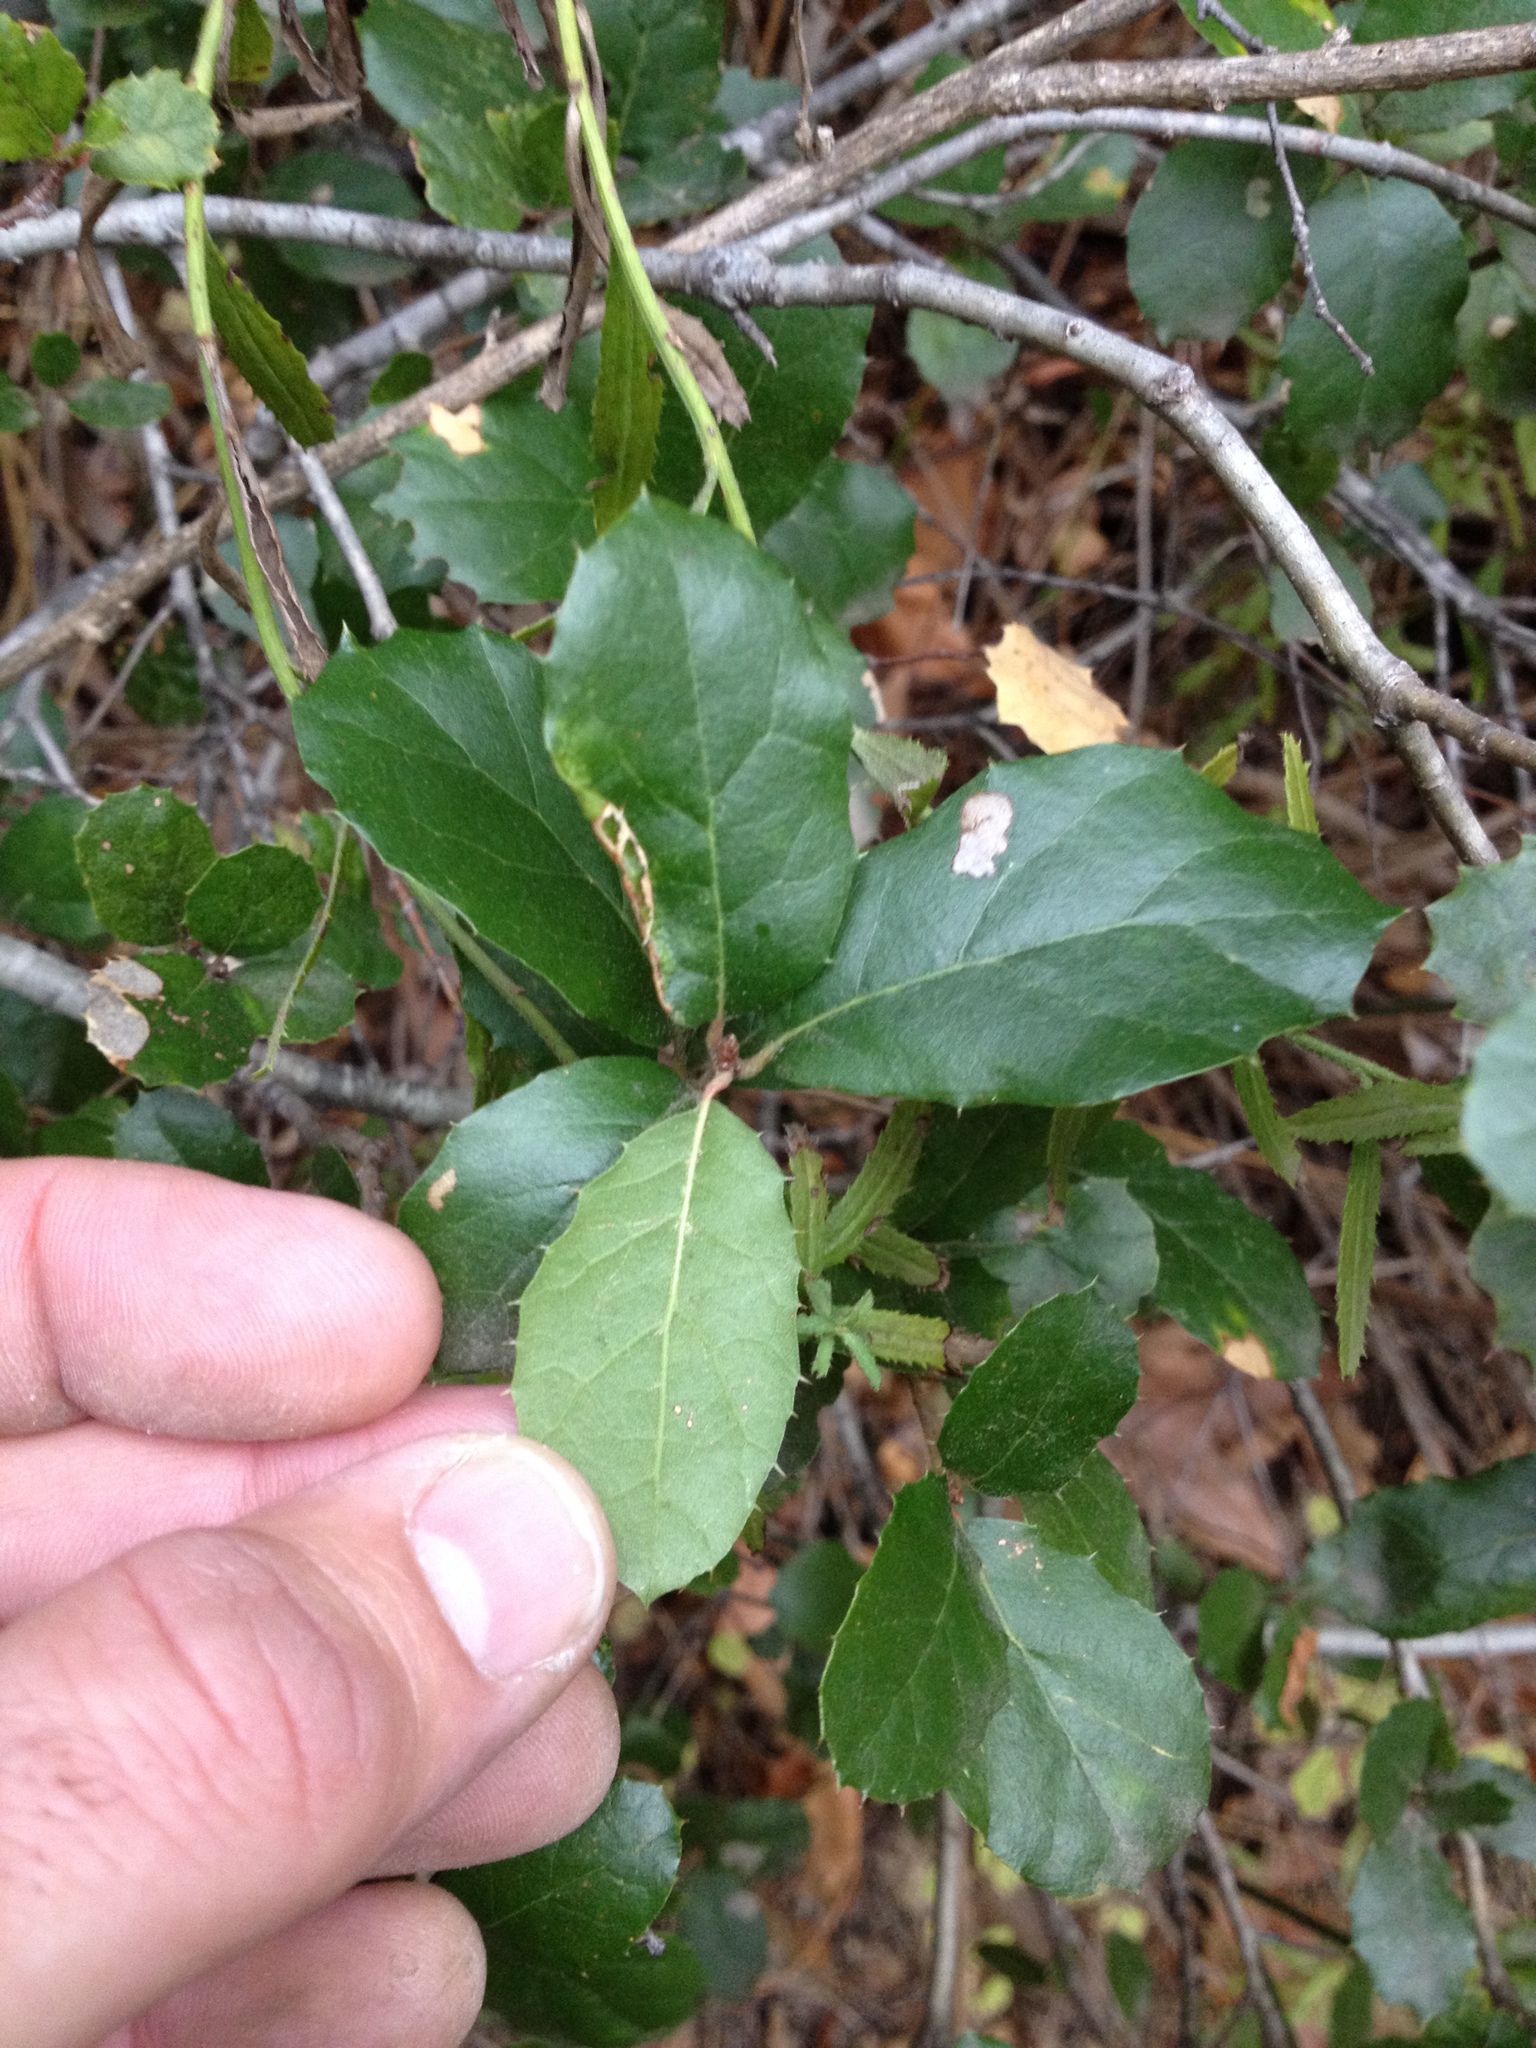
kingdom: Plantae
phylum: Tracheophyta
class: Magnoliopsida
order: Fagales
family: Fagaceae
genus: Quercus
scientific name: Quercus agrifolia
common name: California live oak
